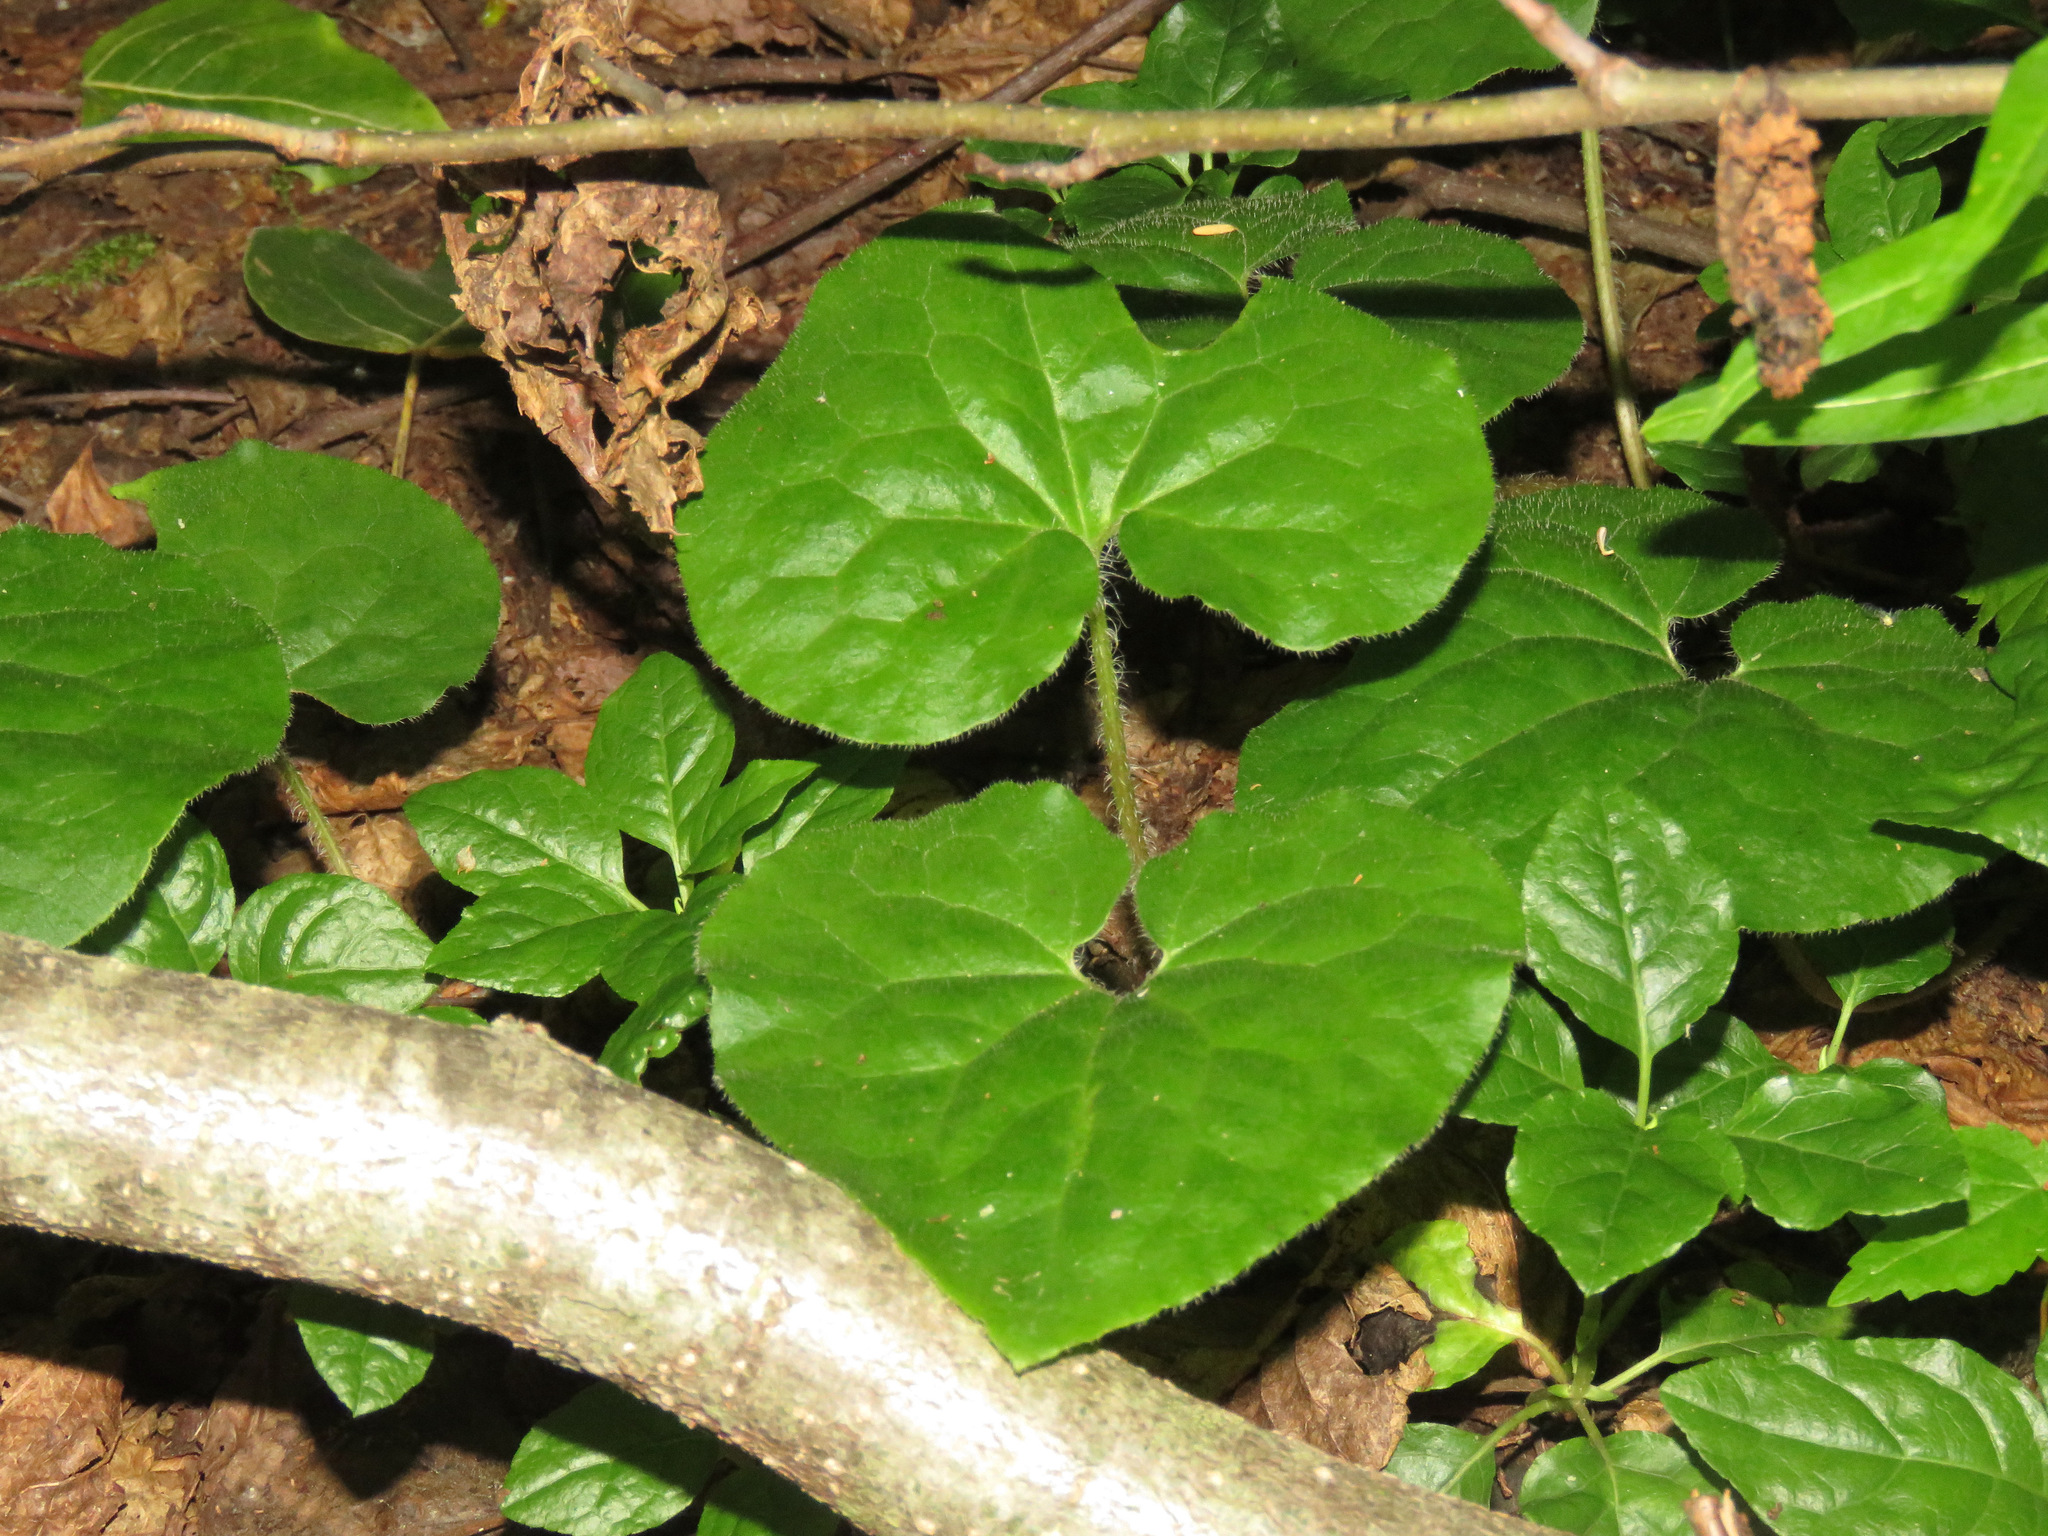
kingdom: Plantae
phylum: Tracheophyta
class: Magnoliopsida
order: Piperales
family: Aristolochiaceae
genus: Asarum
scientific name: Asarum caudatum
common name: Wild ginger
